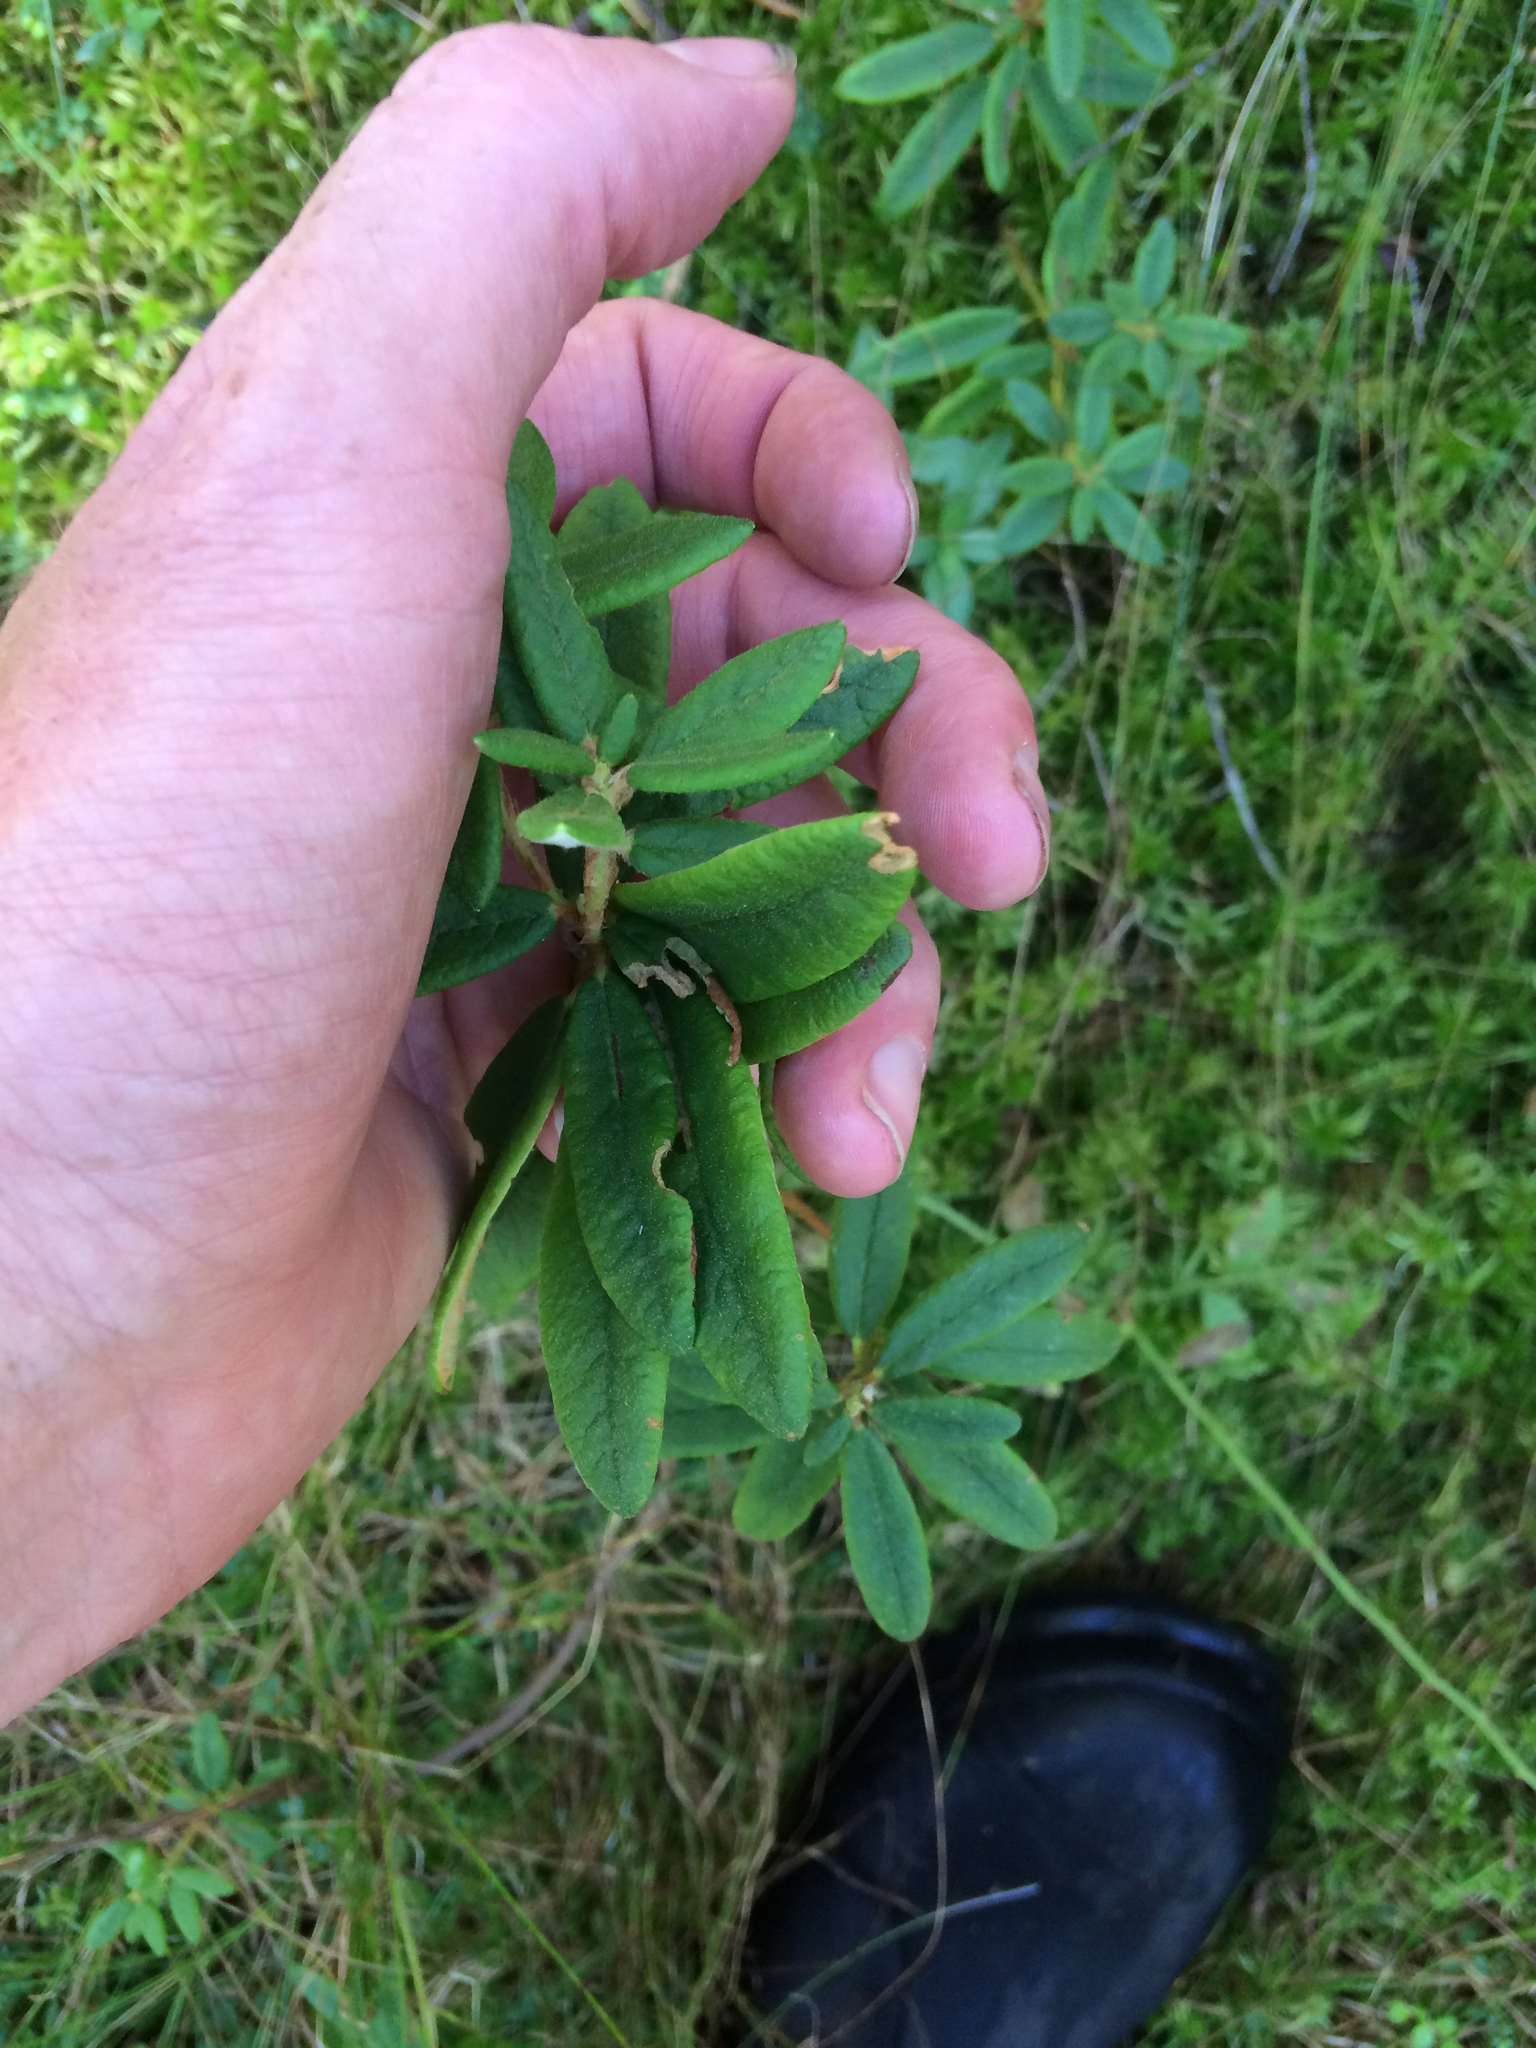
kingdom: Plantae
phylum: Tracheophyta
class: Magnoliopsida
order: Ericales
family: Ericaceae
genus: Rhododendron
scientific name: Rhododendron groenlandicum
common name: Bog labrador tea
